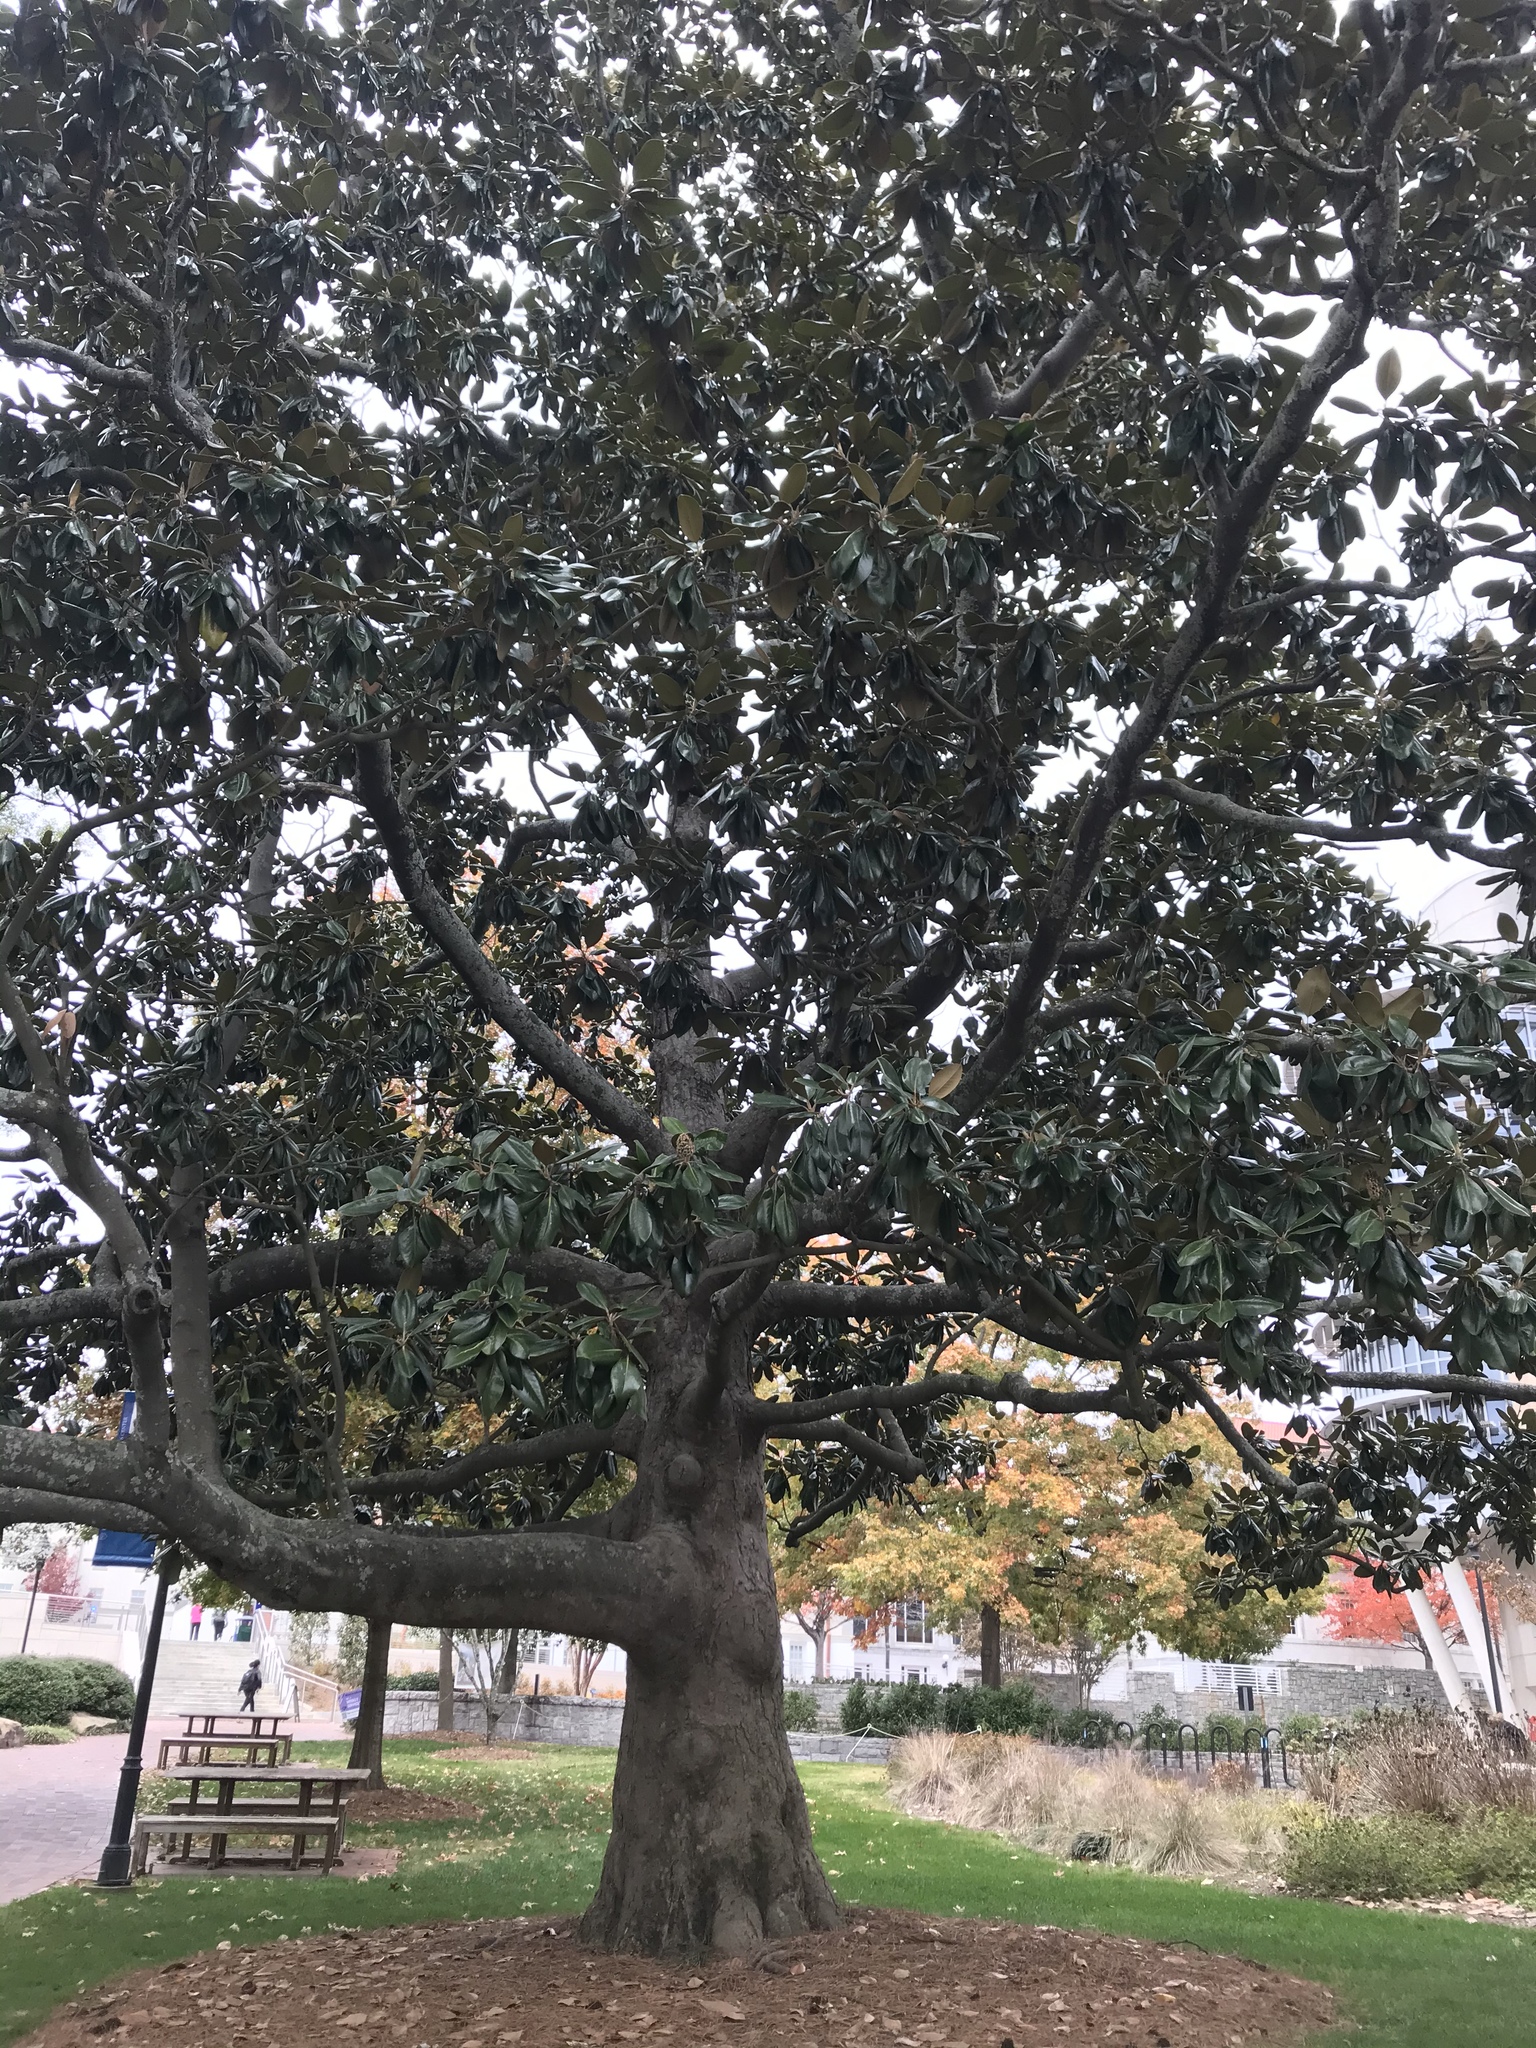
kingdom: Plantae
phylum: Tracheophyta
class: Magnoliopsida
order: Magnoliales
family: Magnoliaceae
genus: Magnolia
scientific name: Magnolia grandiflora
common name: Southern magnolia
